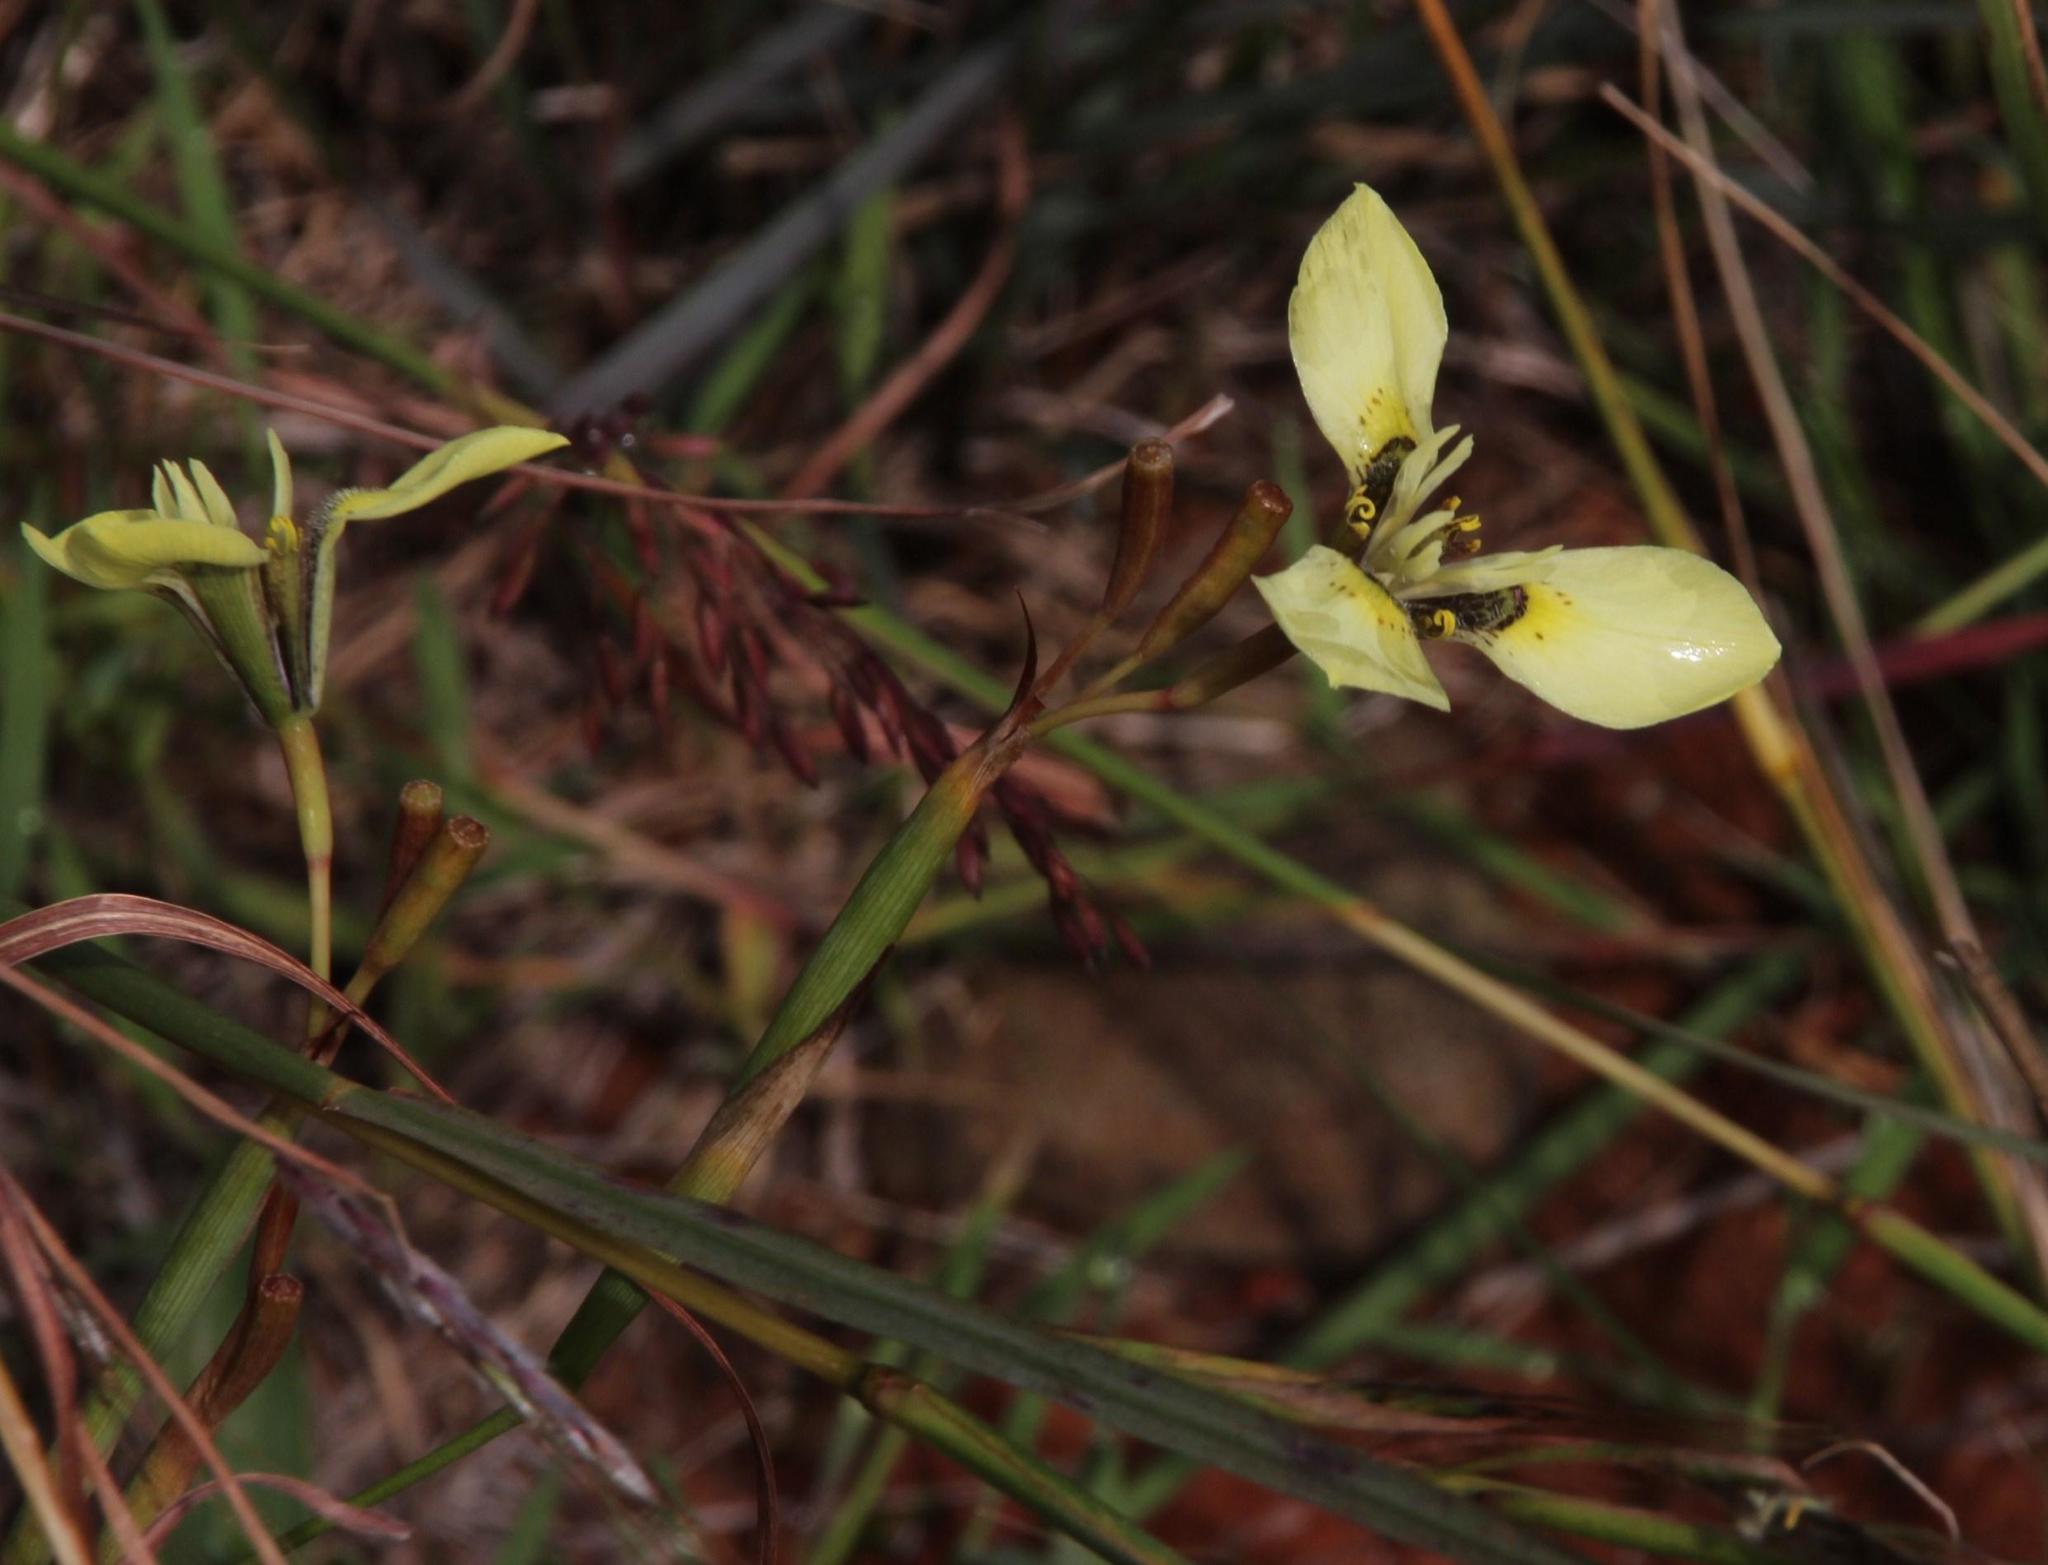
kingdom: Plantae
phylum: Tracheophyta
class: Liliopsida
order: Asparagales
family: Iridaceae
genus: Moraea
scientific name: Moraea bellendenii
